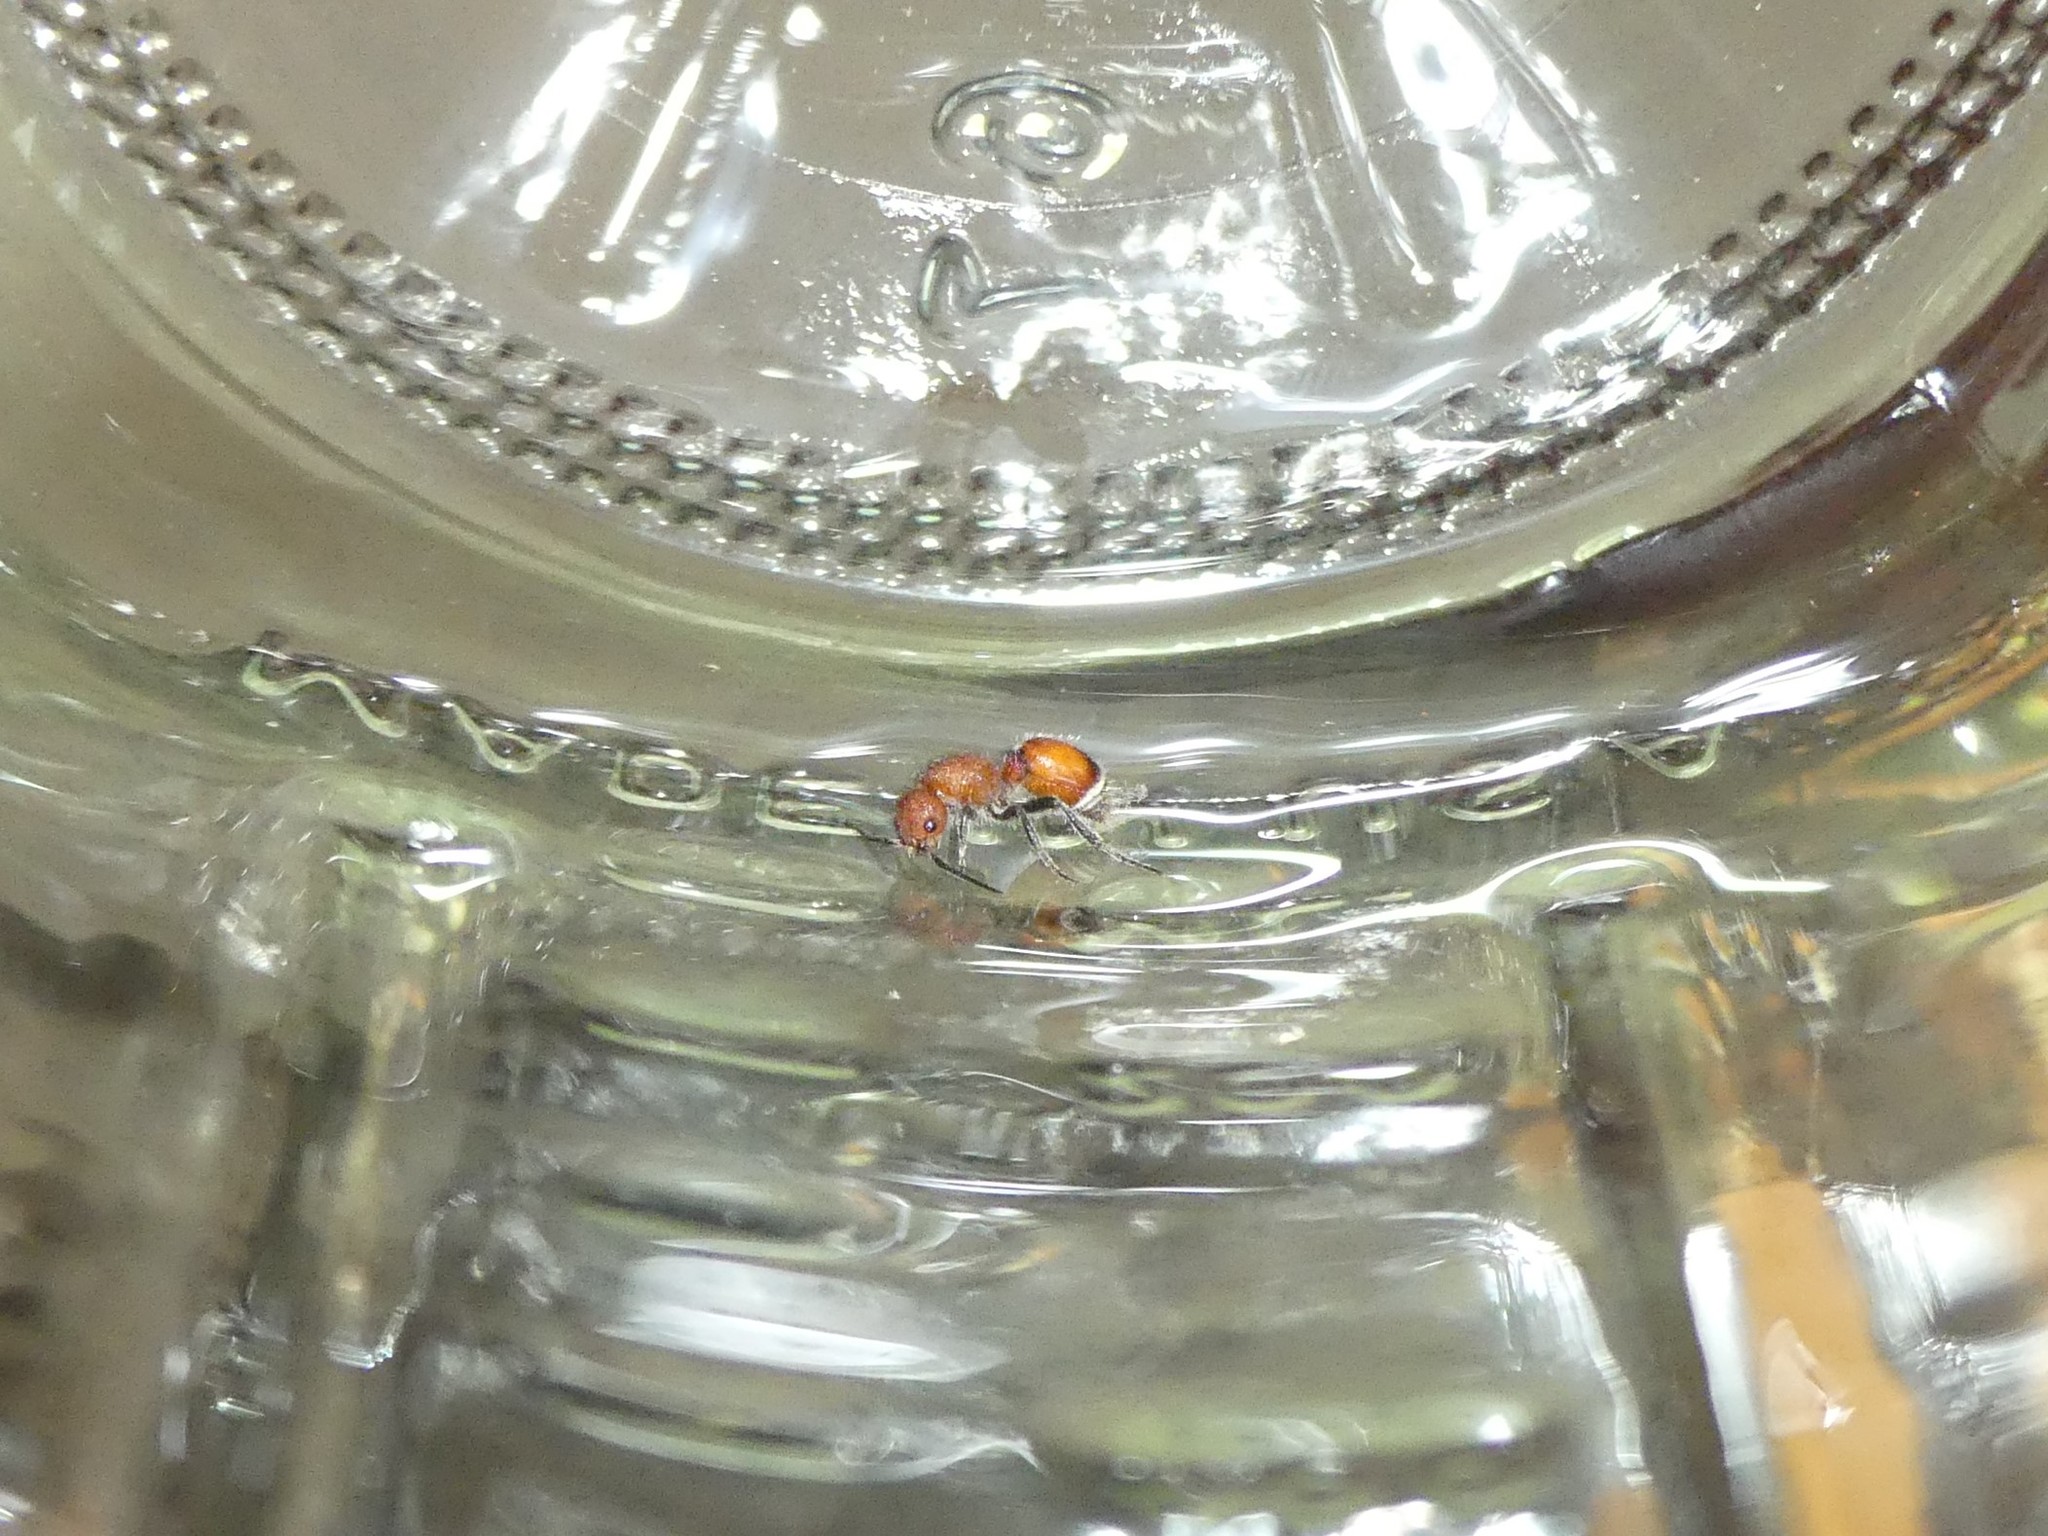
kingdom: Animalia
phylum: Arthropoda
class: Insecta
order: Hymenoptera
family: Mutillidae
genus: Sphaeropthalma
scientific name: Sphaeropthalma
